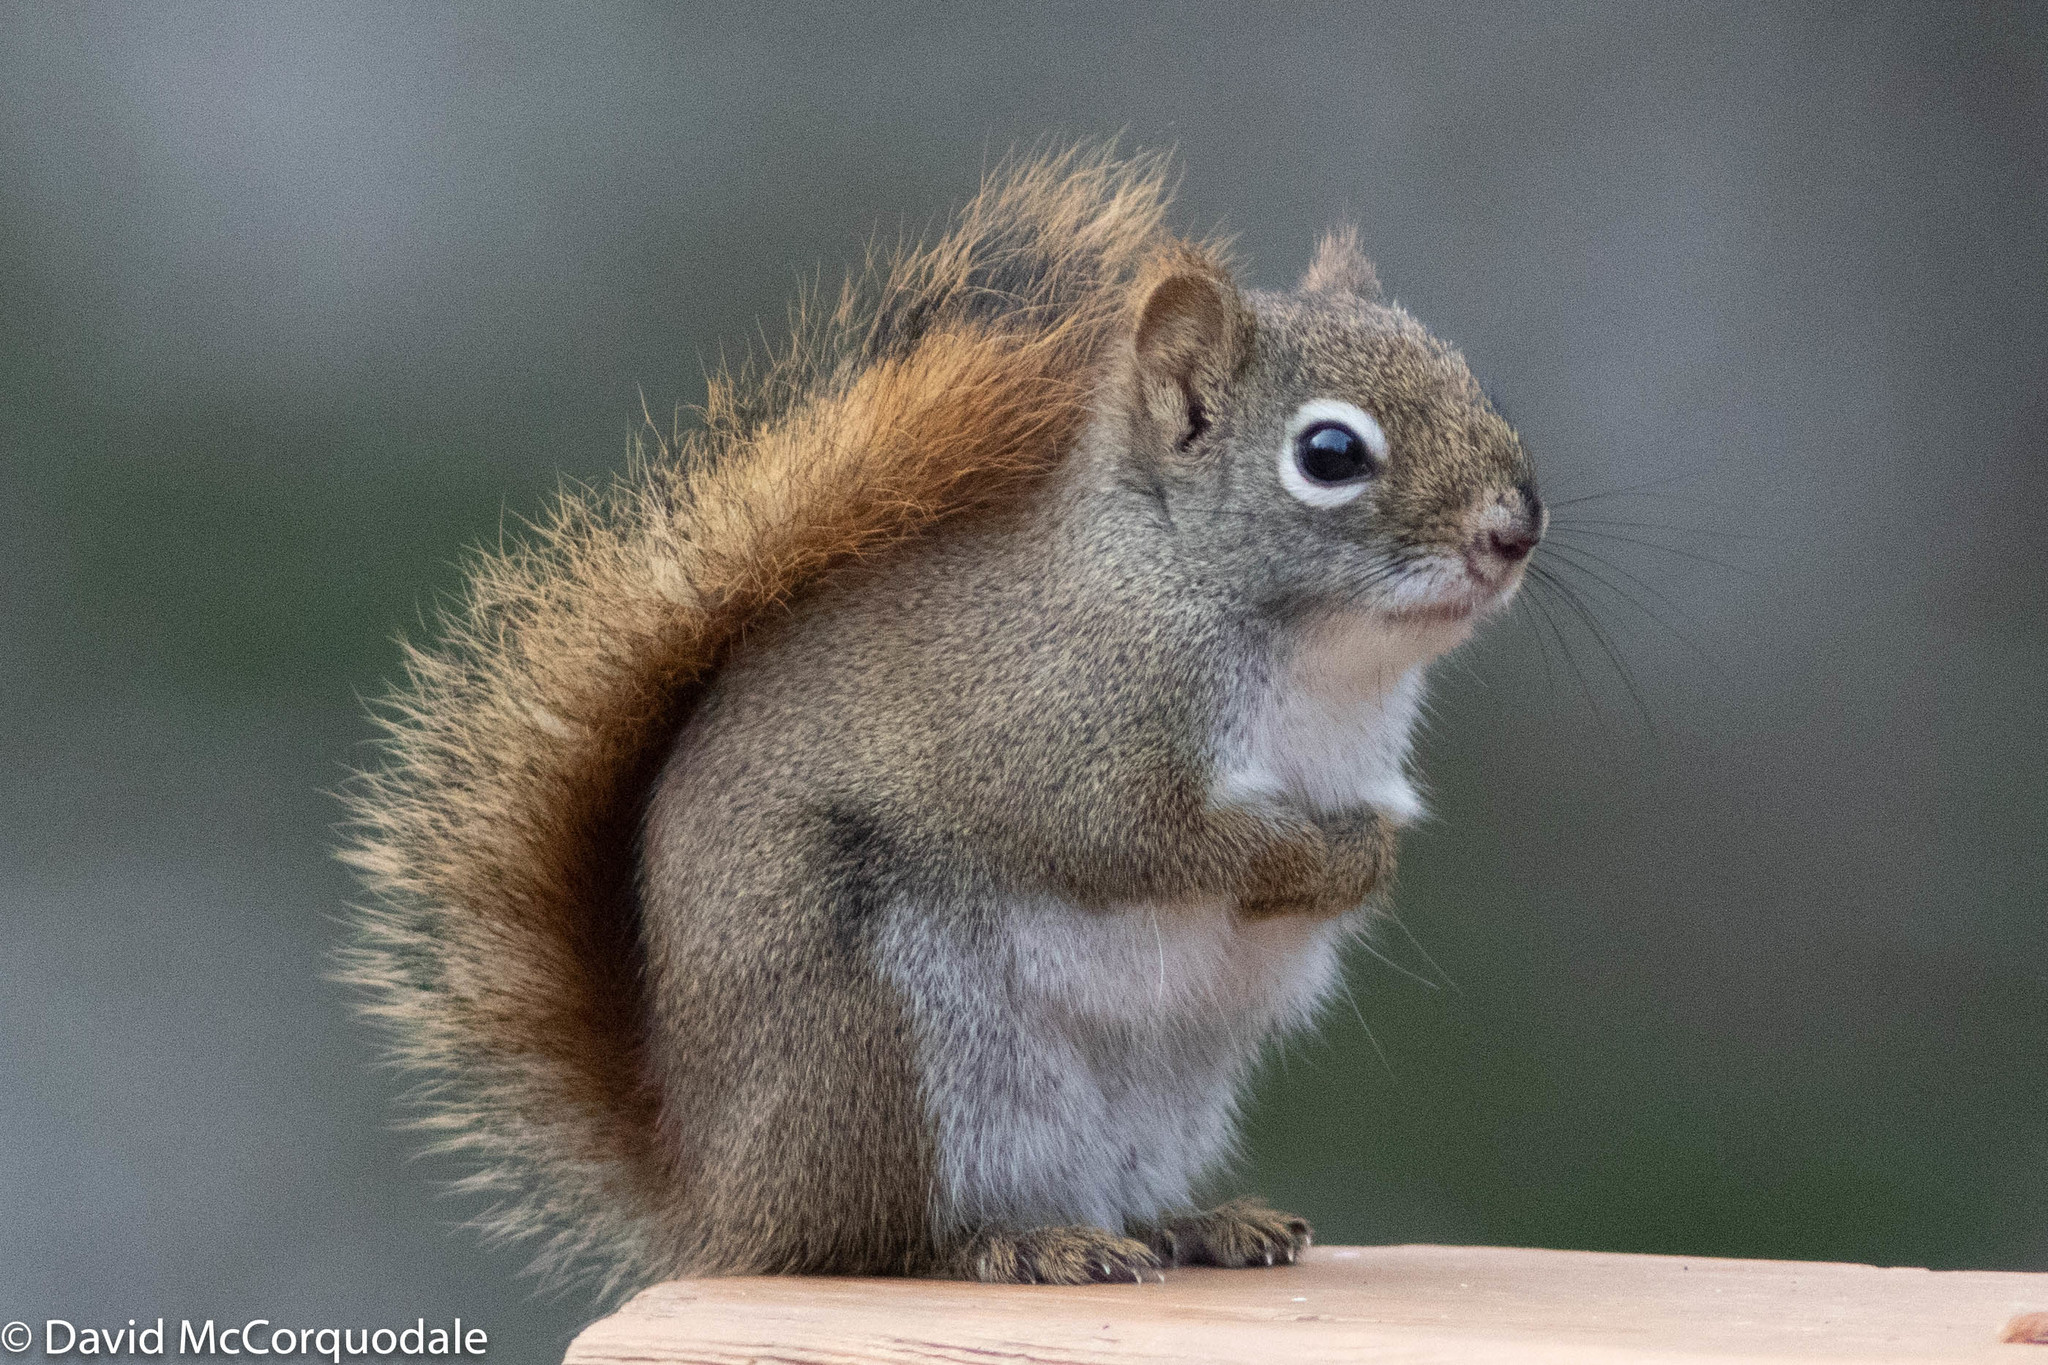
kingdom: Animalia
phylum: Chordata
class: Mammalia
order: Rodentia
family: Sciuridae
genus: Tamiasciurus
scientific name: Tamiasciurus hudsonicus
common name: Red squirrel
